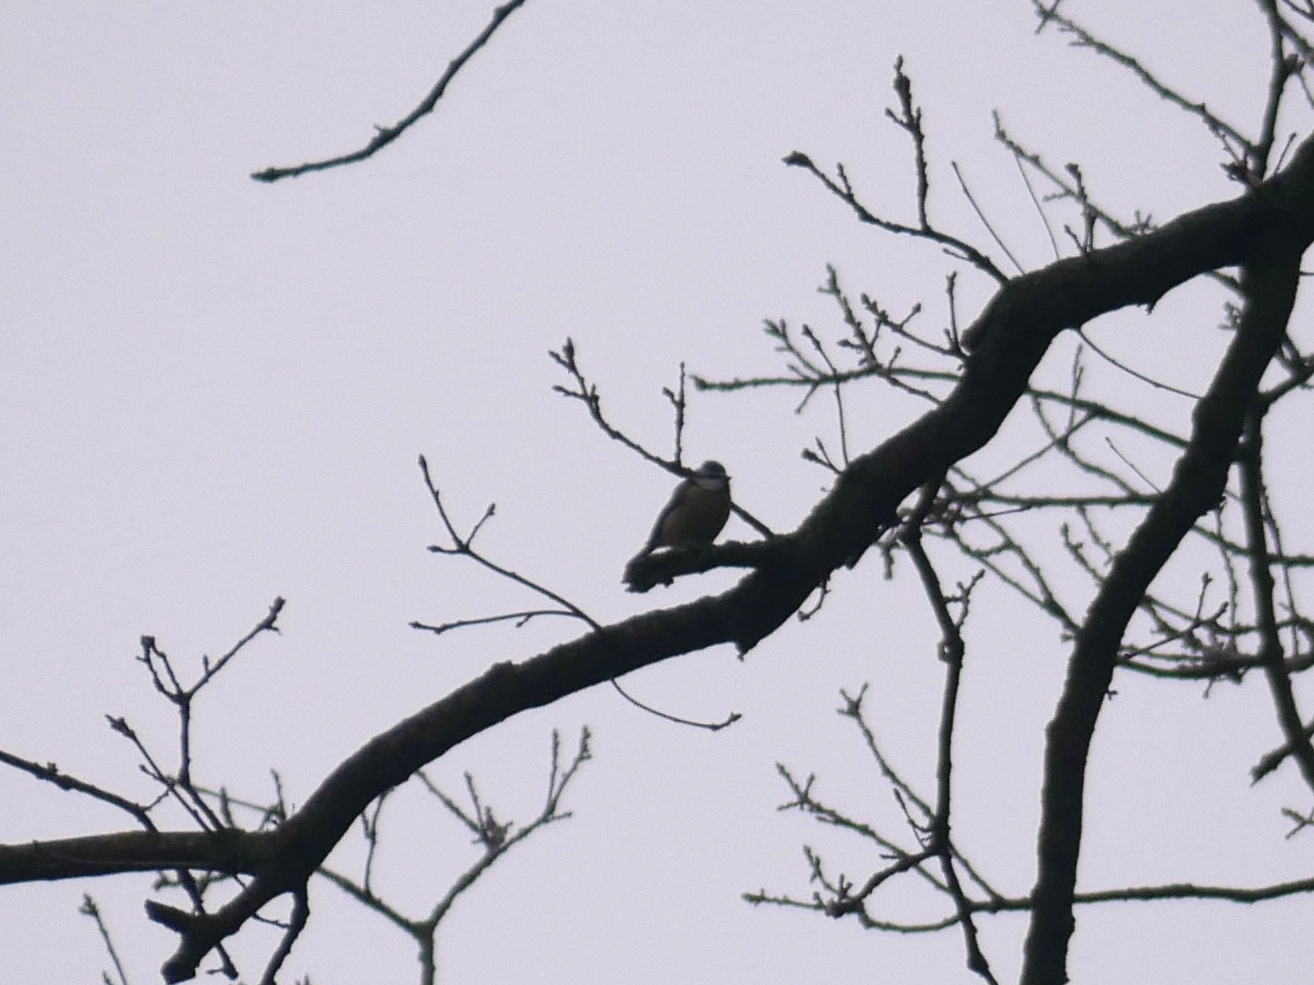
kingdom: Animalia
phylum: Chordata
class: Aves
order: Passeriformes
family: Paridae
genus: Cyanistes
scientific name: Cyanistes caeruleus
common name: Eurasian blue tit
